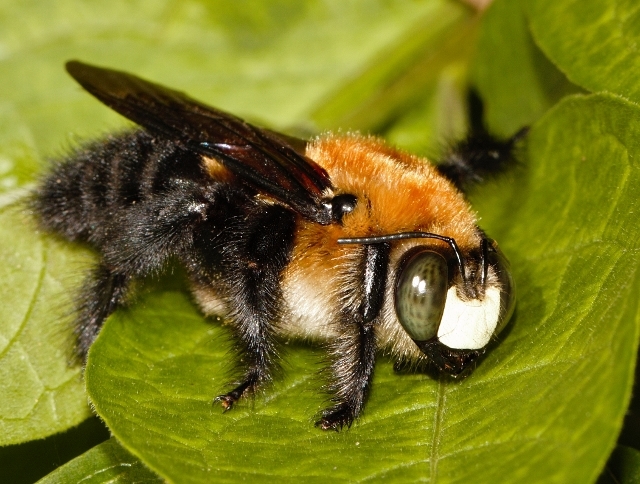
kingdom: Animalia
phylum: Arthropoda
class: Insecta
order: Hymenoptera
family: Apidae
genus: Xylocopa
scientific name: Xylocopa erythrina
